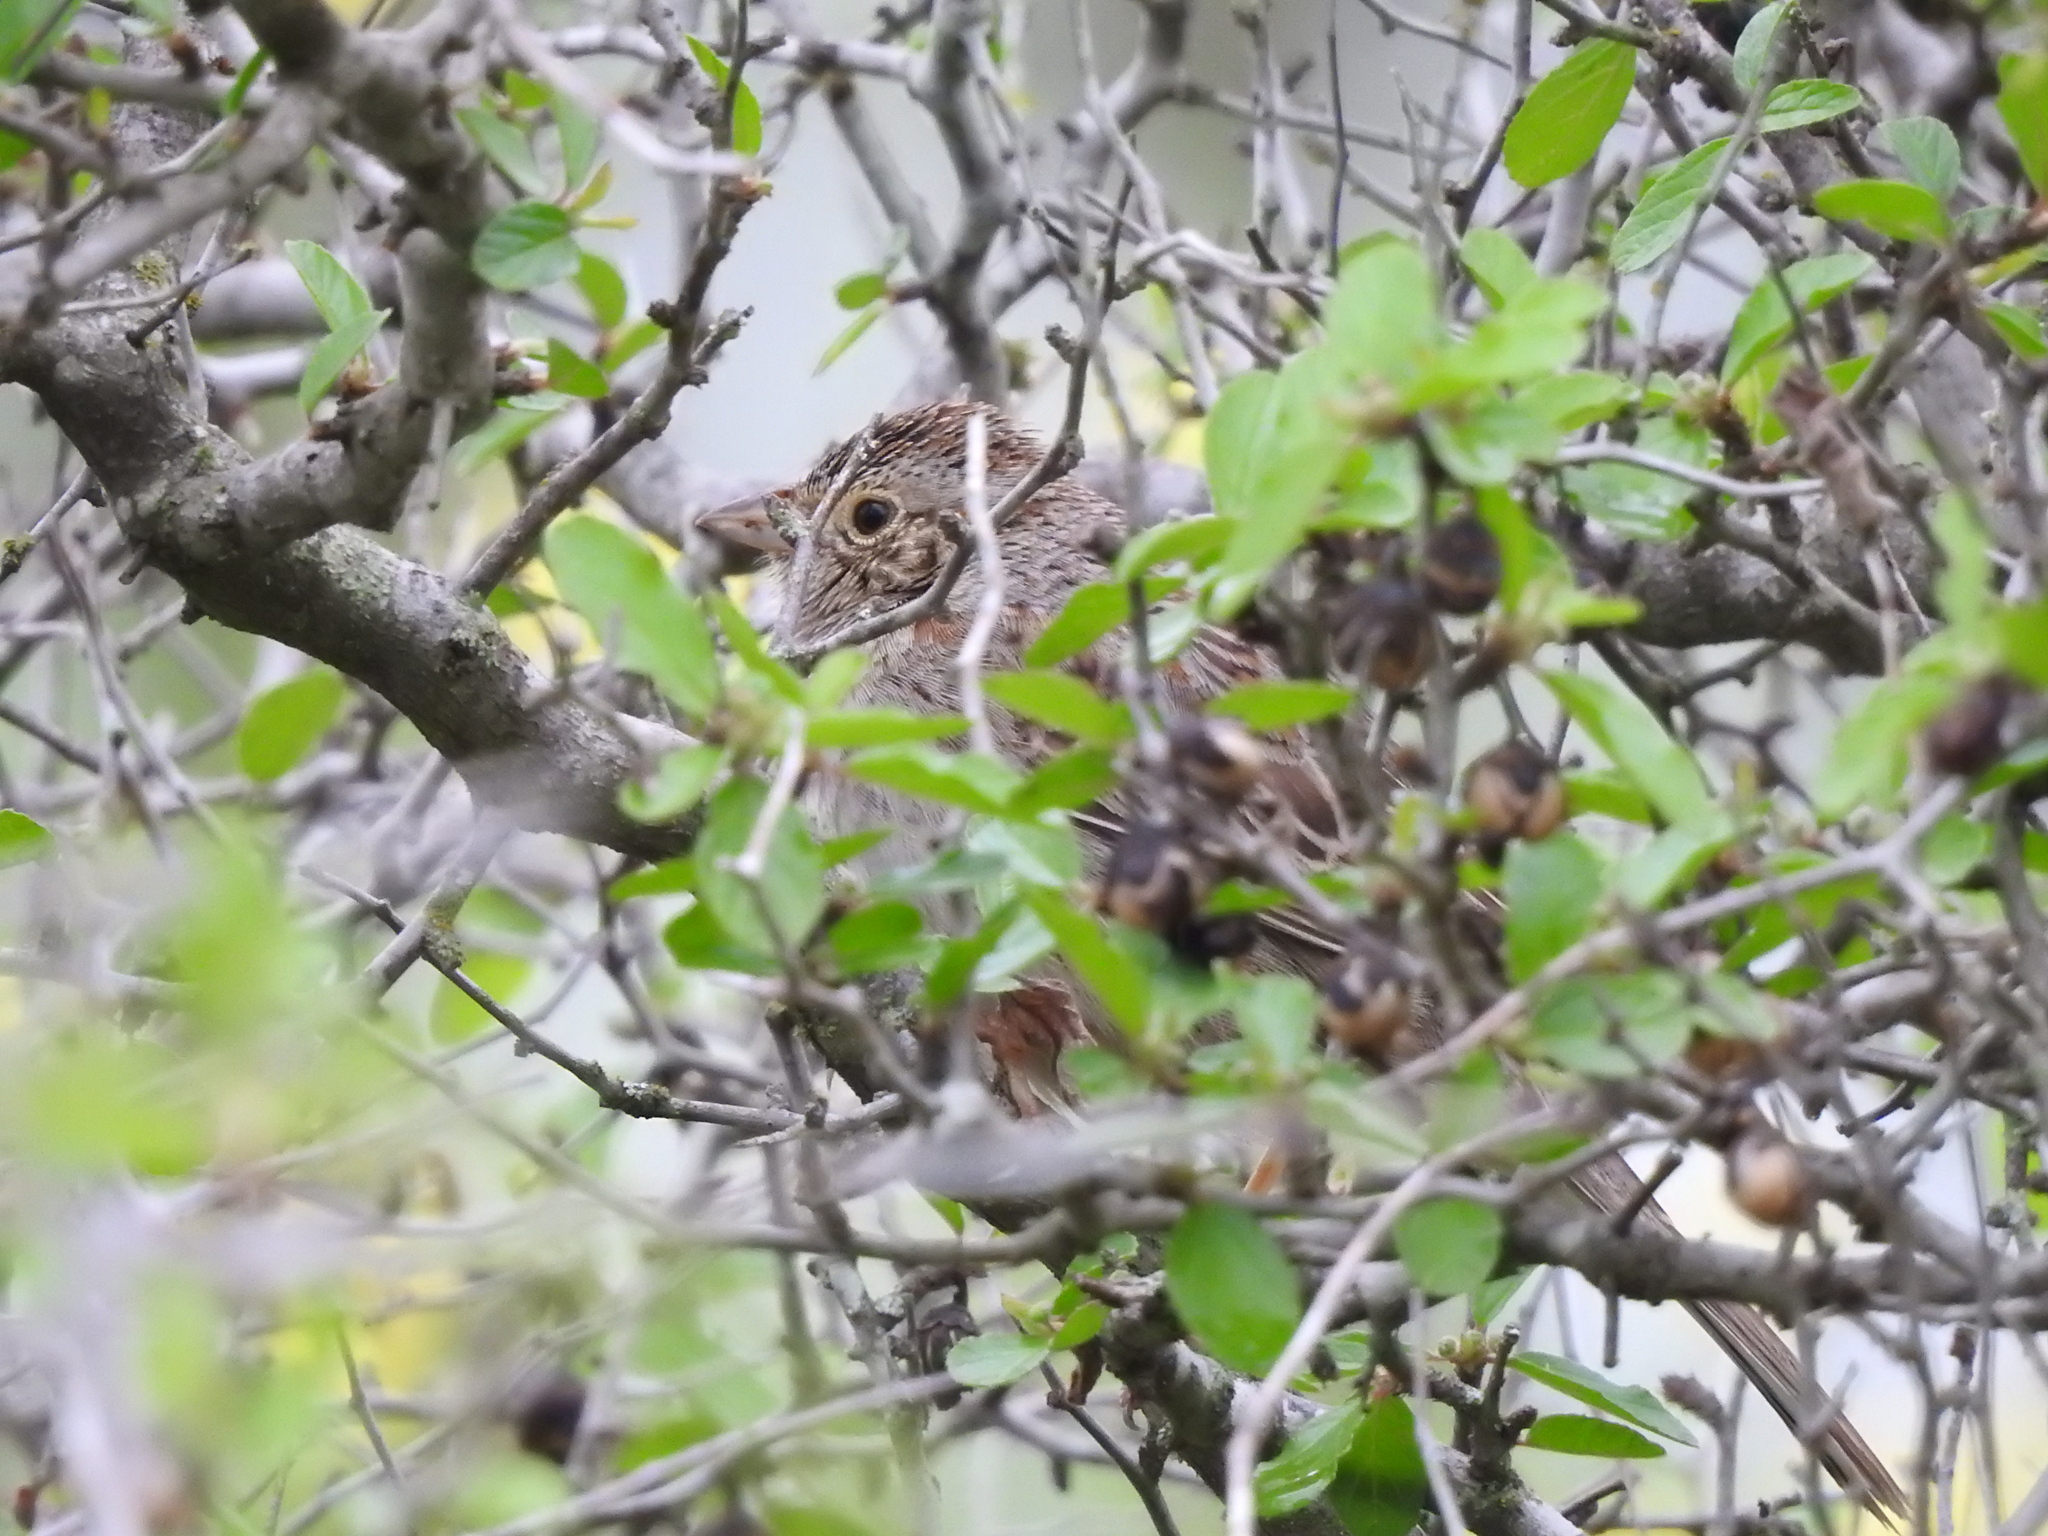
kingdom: Animalia
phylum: Chordata
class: Aves
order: Passeriformes
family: Passerellidae
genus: Peucaea
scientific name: Peucaea cassinii
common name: Cassin's sparrow
